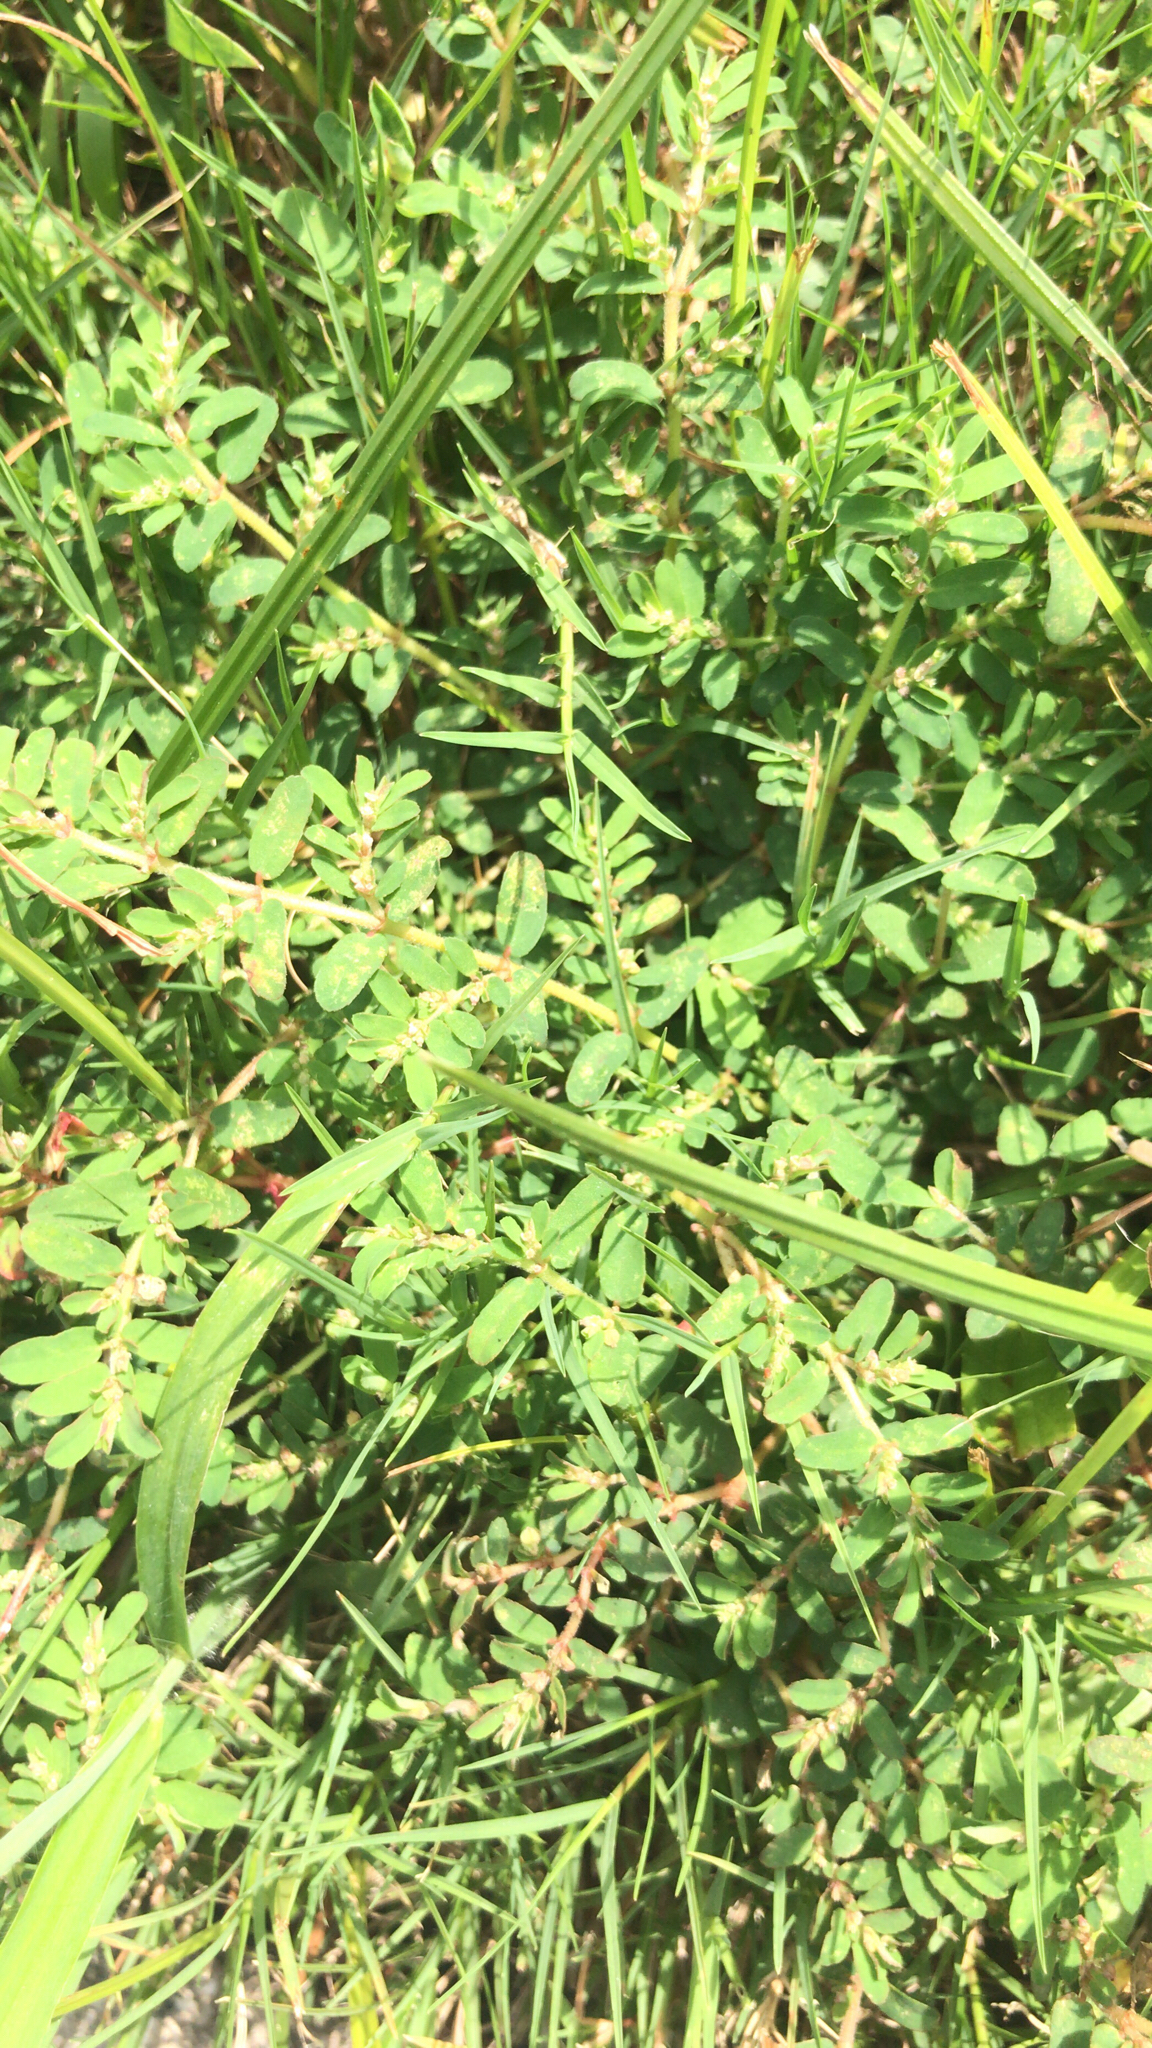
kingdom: Plantae
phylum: Tracheophyta
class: Magnoliopsida
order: Malpighiales
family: Euphorbiaceae
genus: Euphorbia
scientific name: Euphorbia maculata
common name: Spotted spurge
